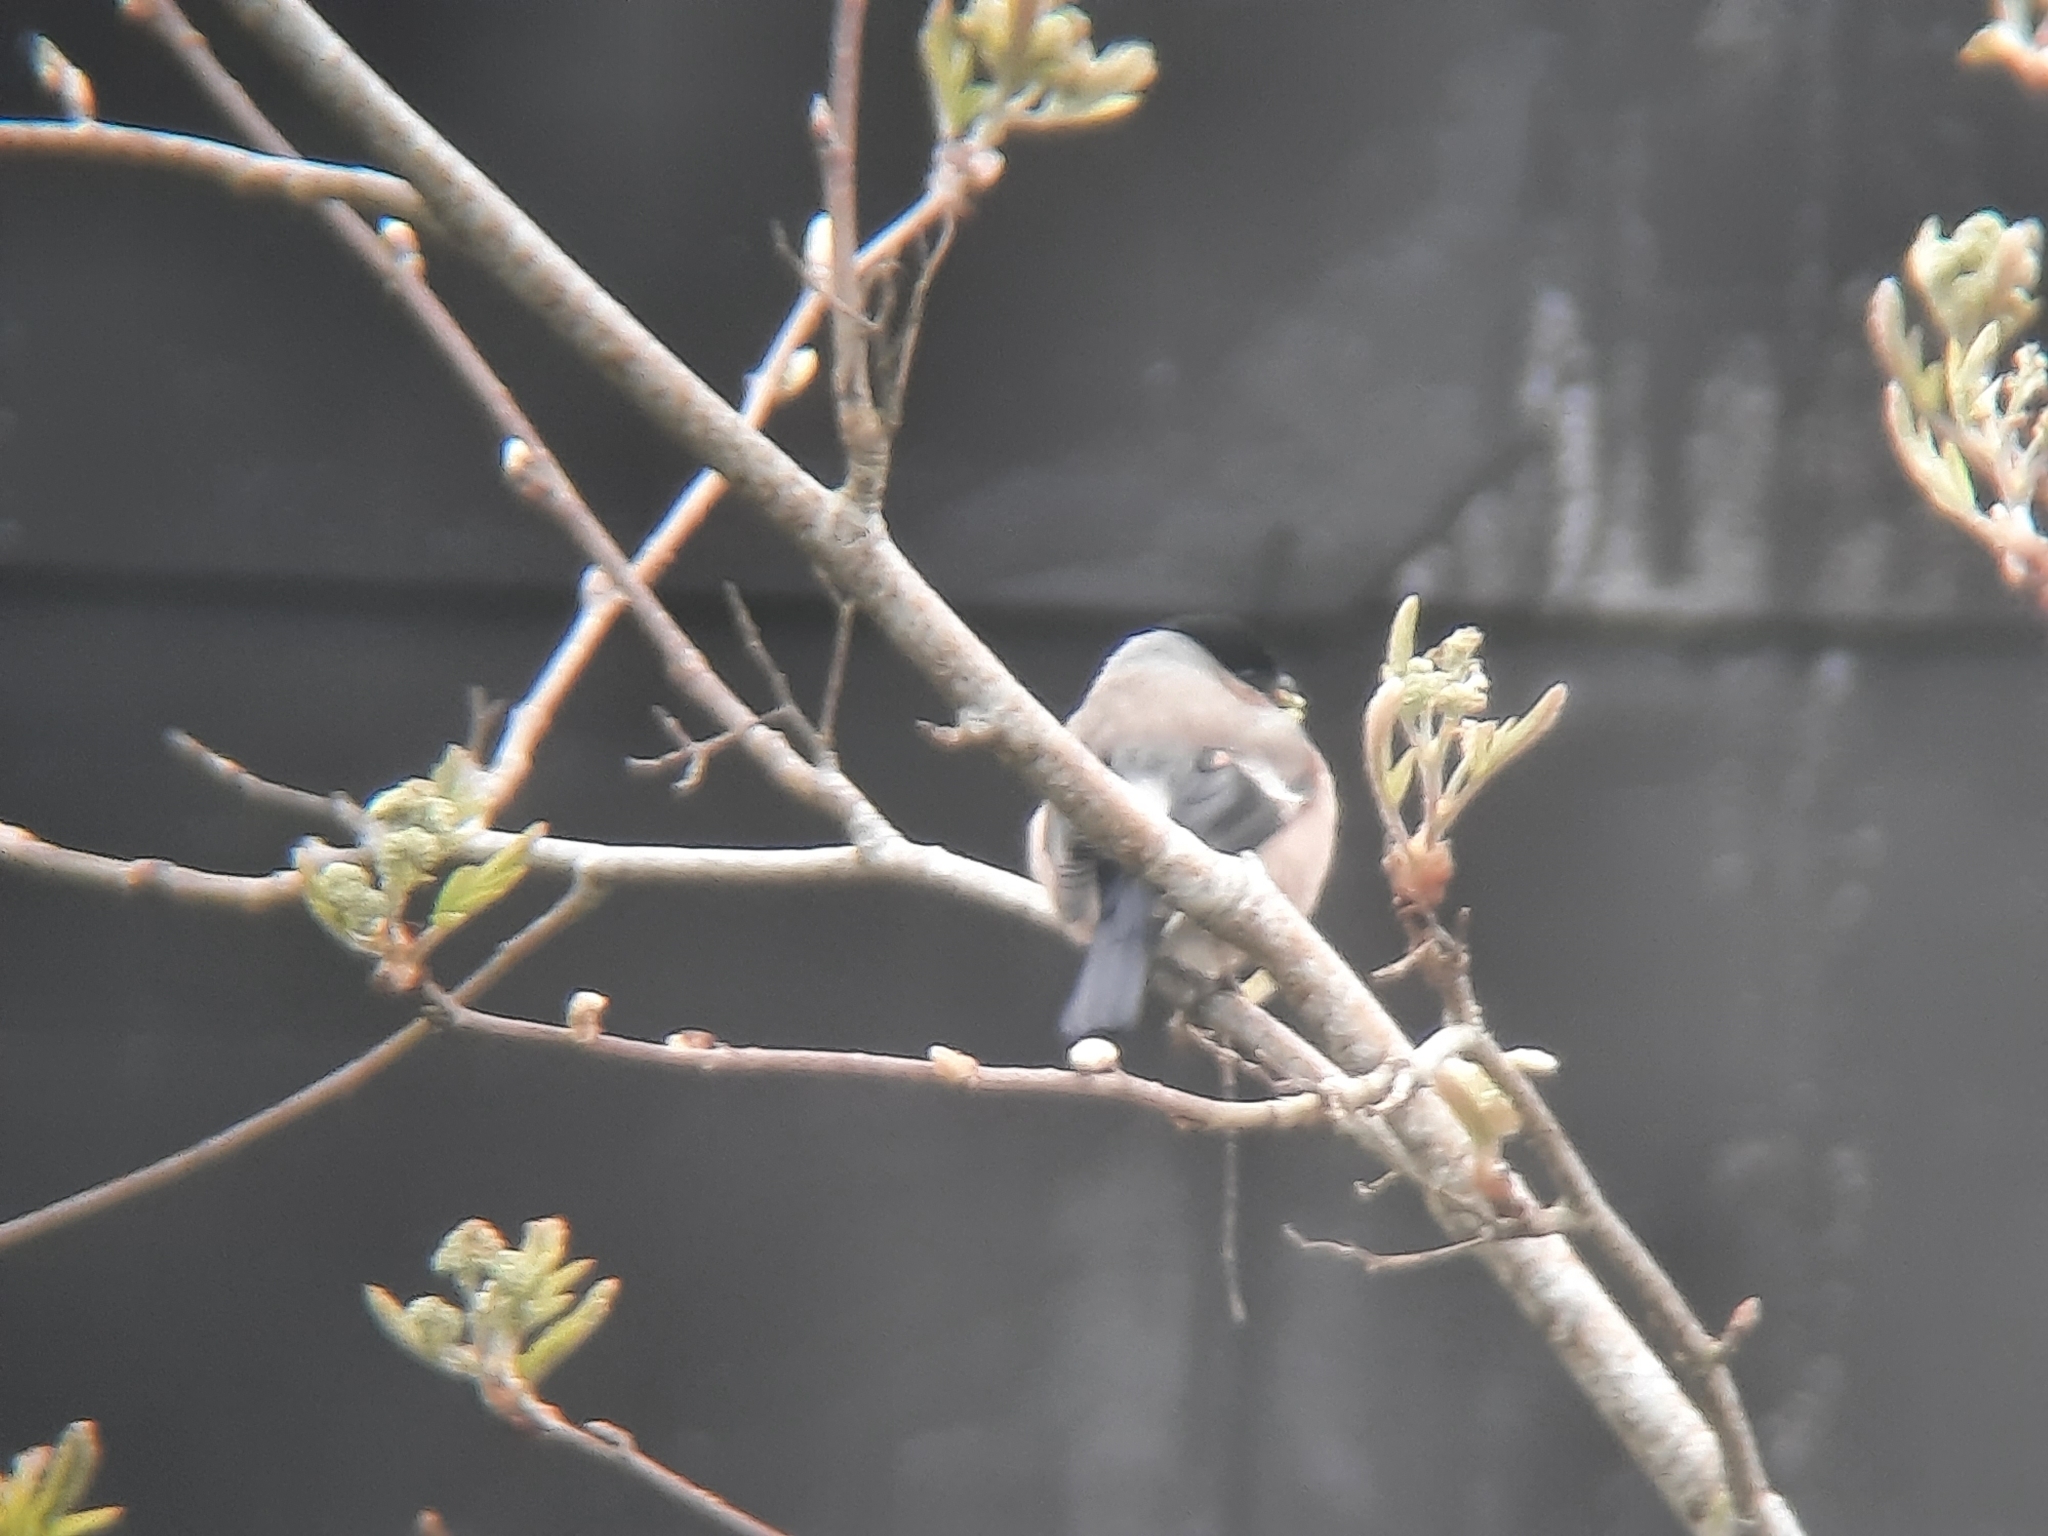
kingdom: Animalia
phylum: Chordata
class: Aves
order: Passeriformes
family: Fringillidae
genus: Pyrrhula
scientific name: Pyrrhula pyrrhula
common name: Eurasian bullfinch
